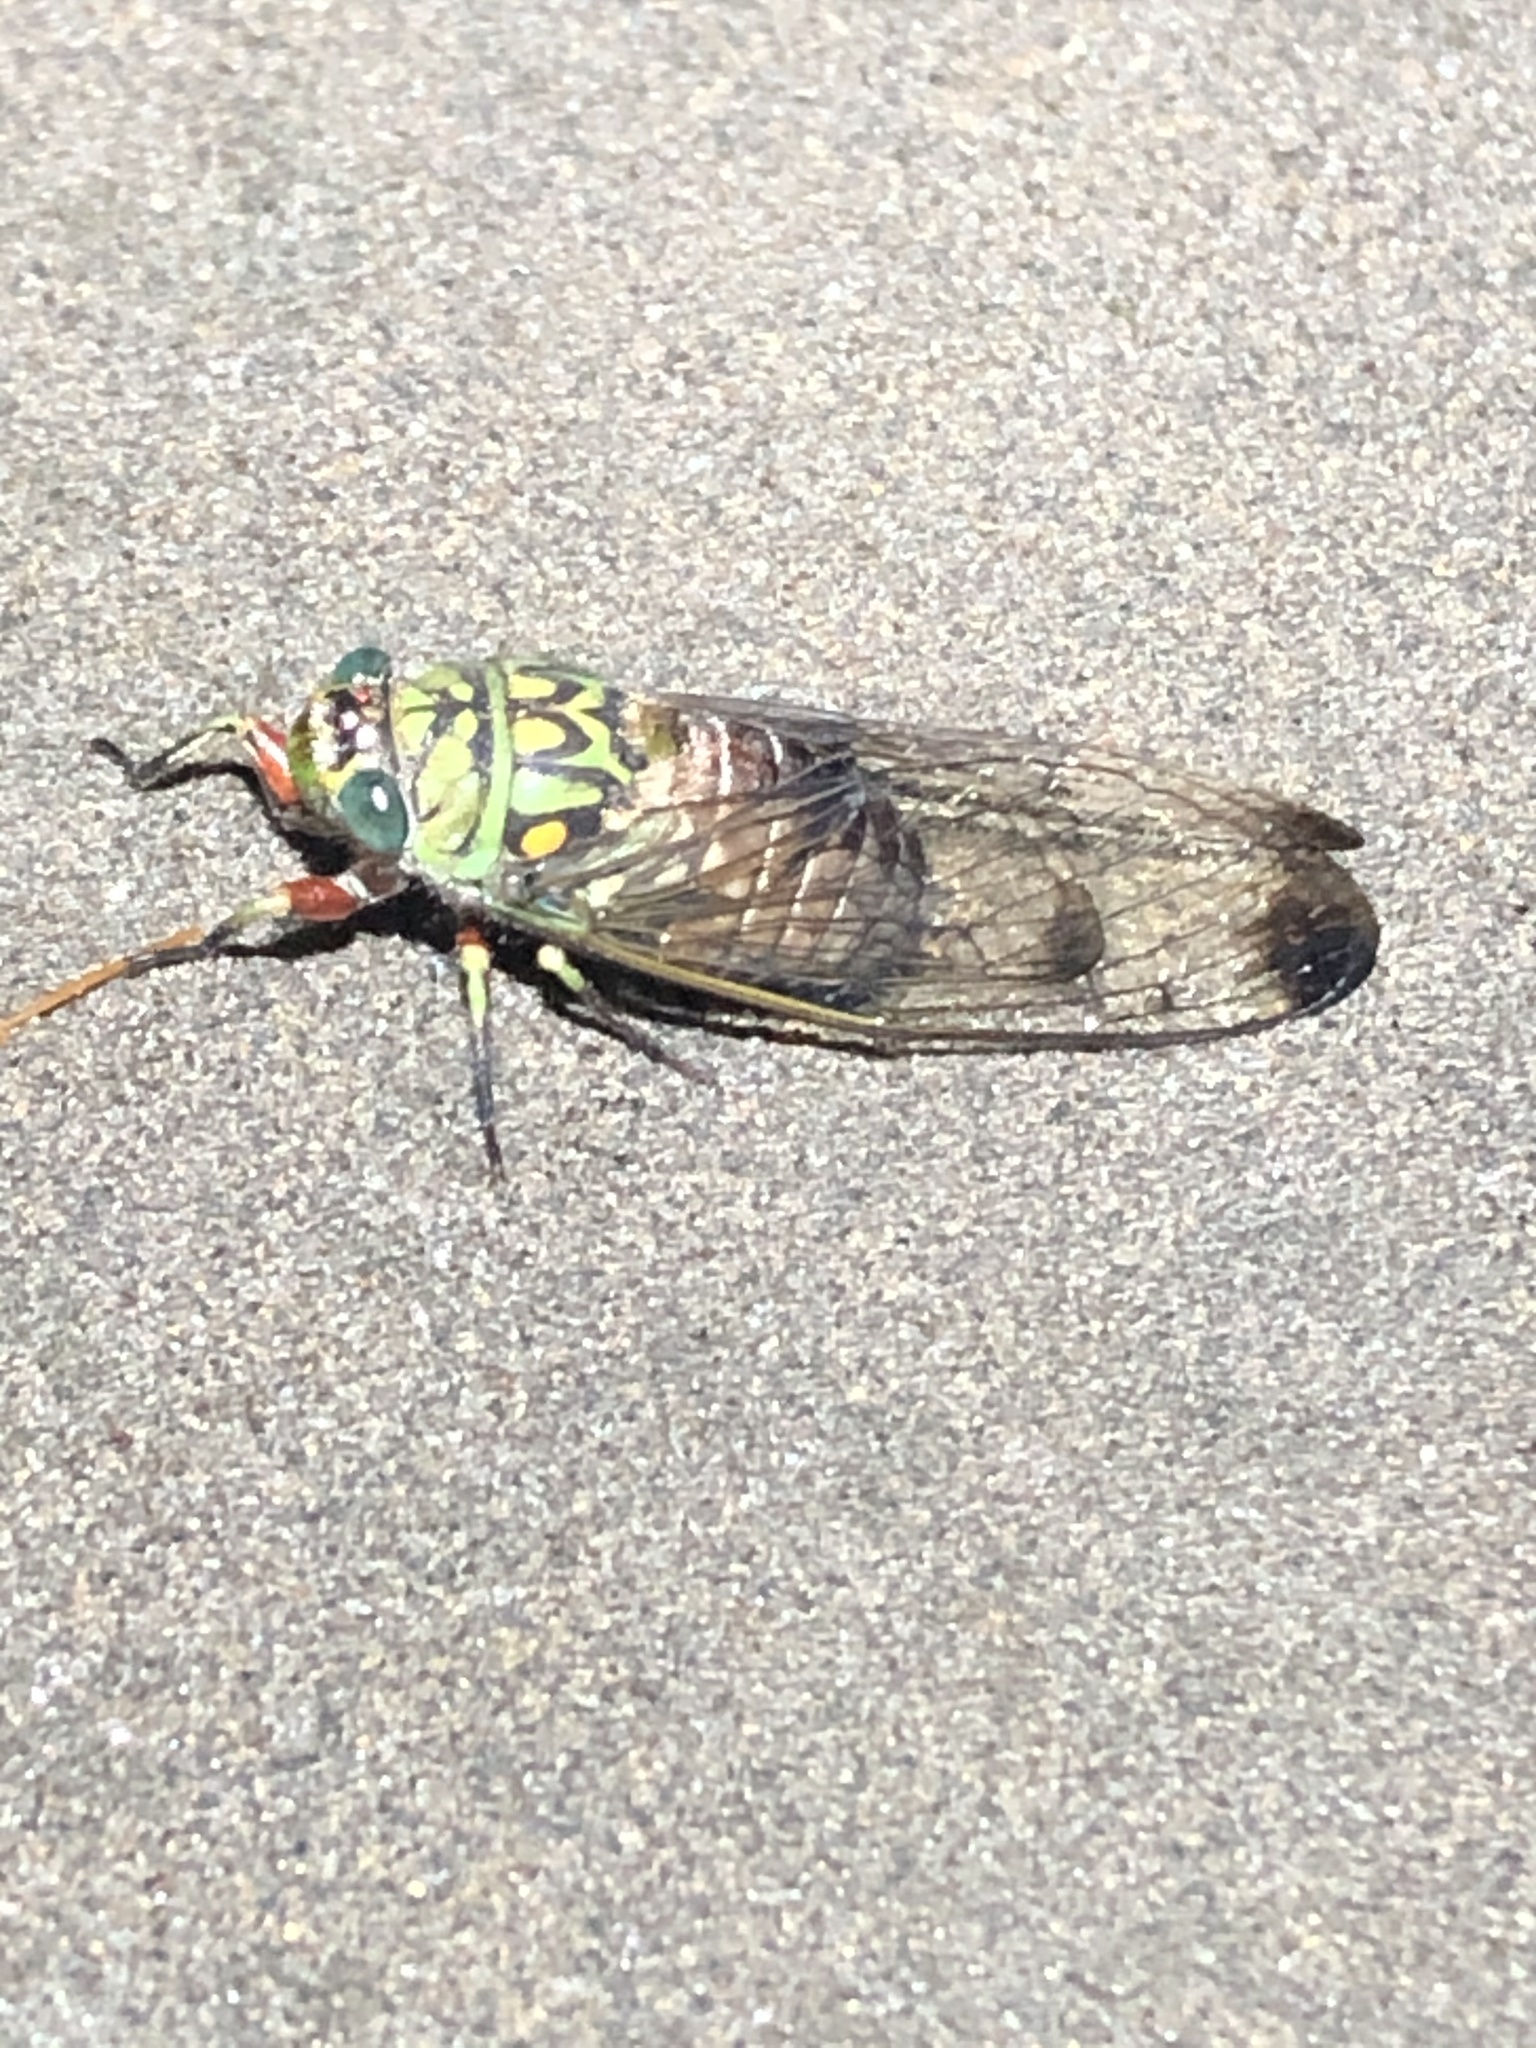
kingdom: Animalia
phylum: Arthropoda
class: Insecta
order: Hemiptera
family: Cicadidae
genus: Carineta
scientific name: Carineta argentea
